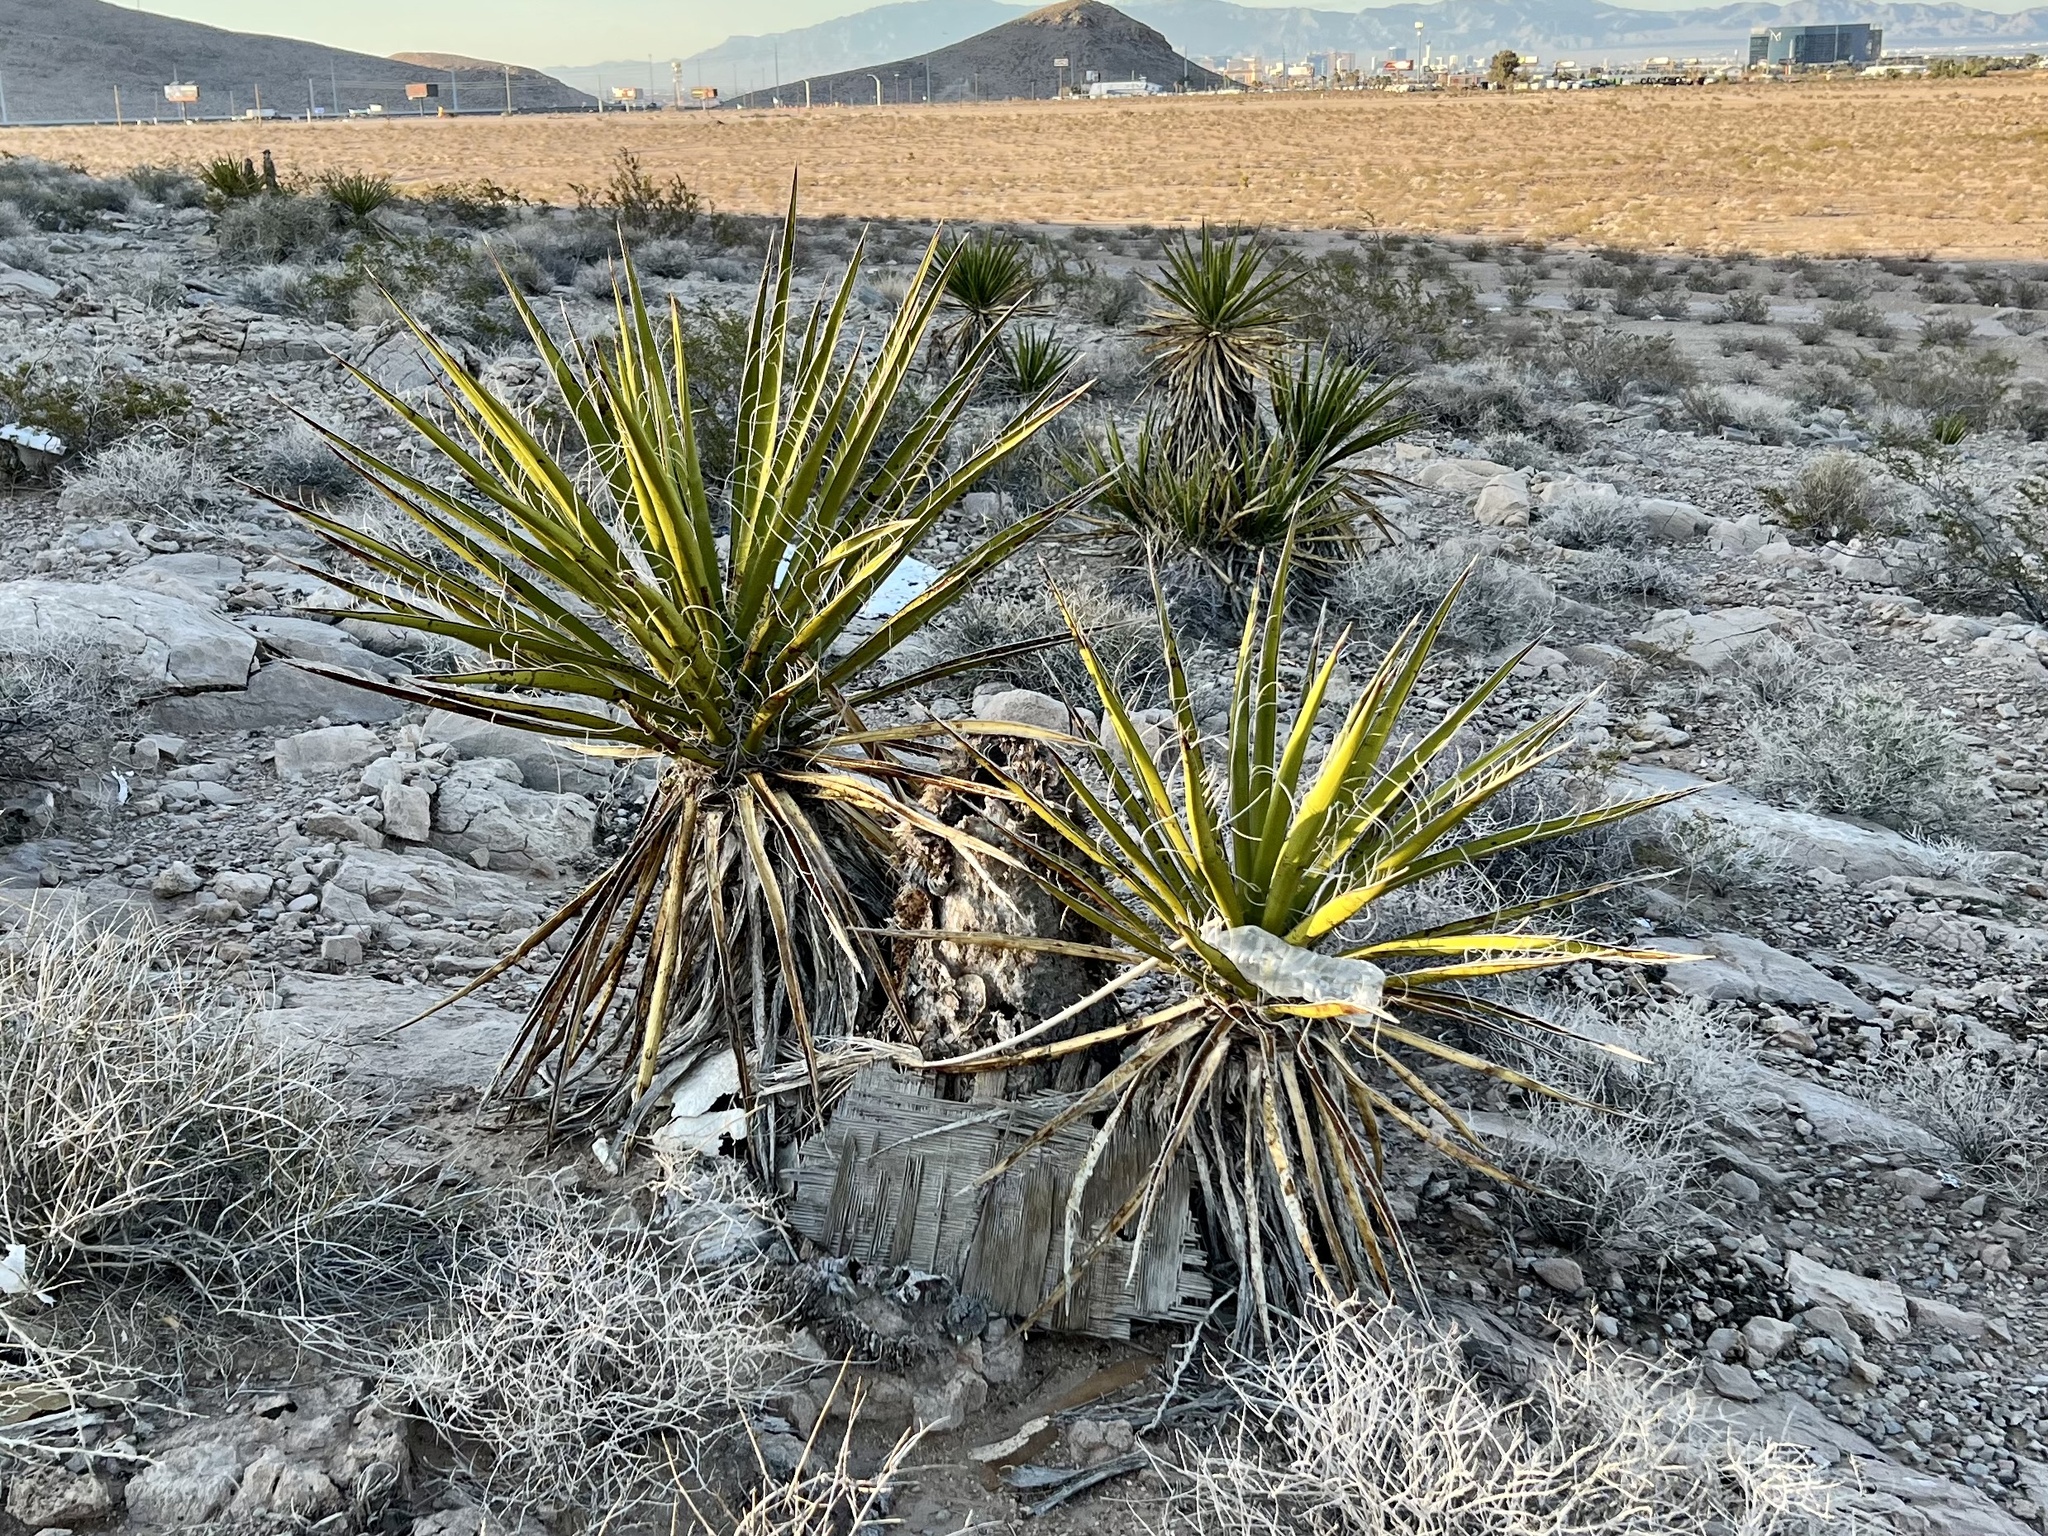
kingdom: Plantae
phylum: Tracheophyta
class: Liliopsida
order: Asparagales
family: Asparagaceae
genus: Yucca
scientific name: Yucca schidigera
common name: Mojave yucca
